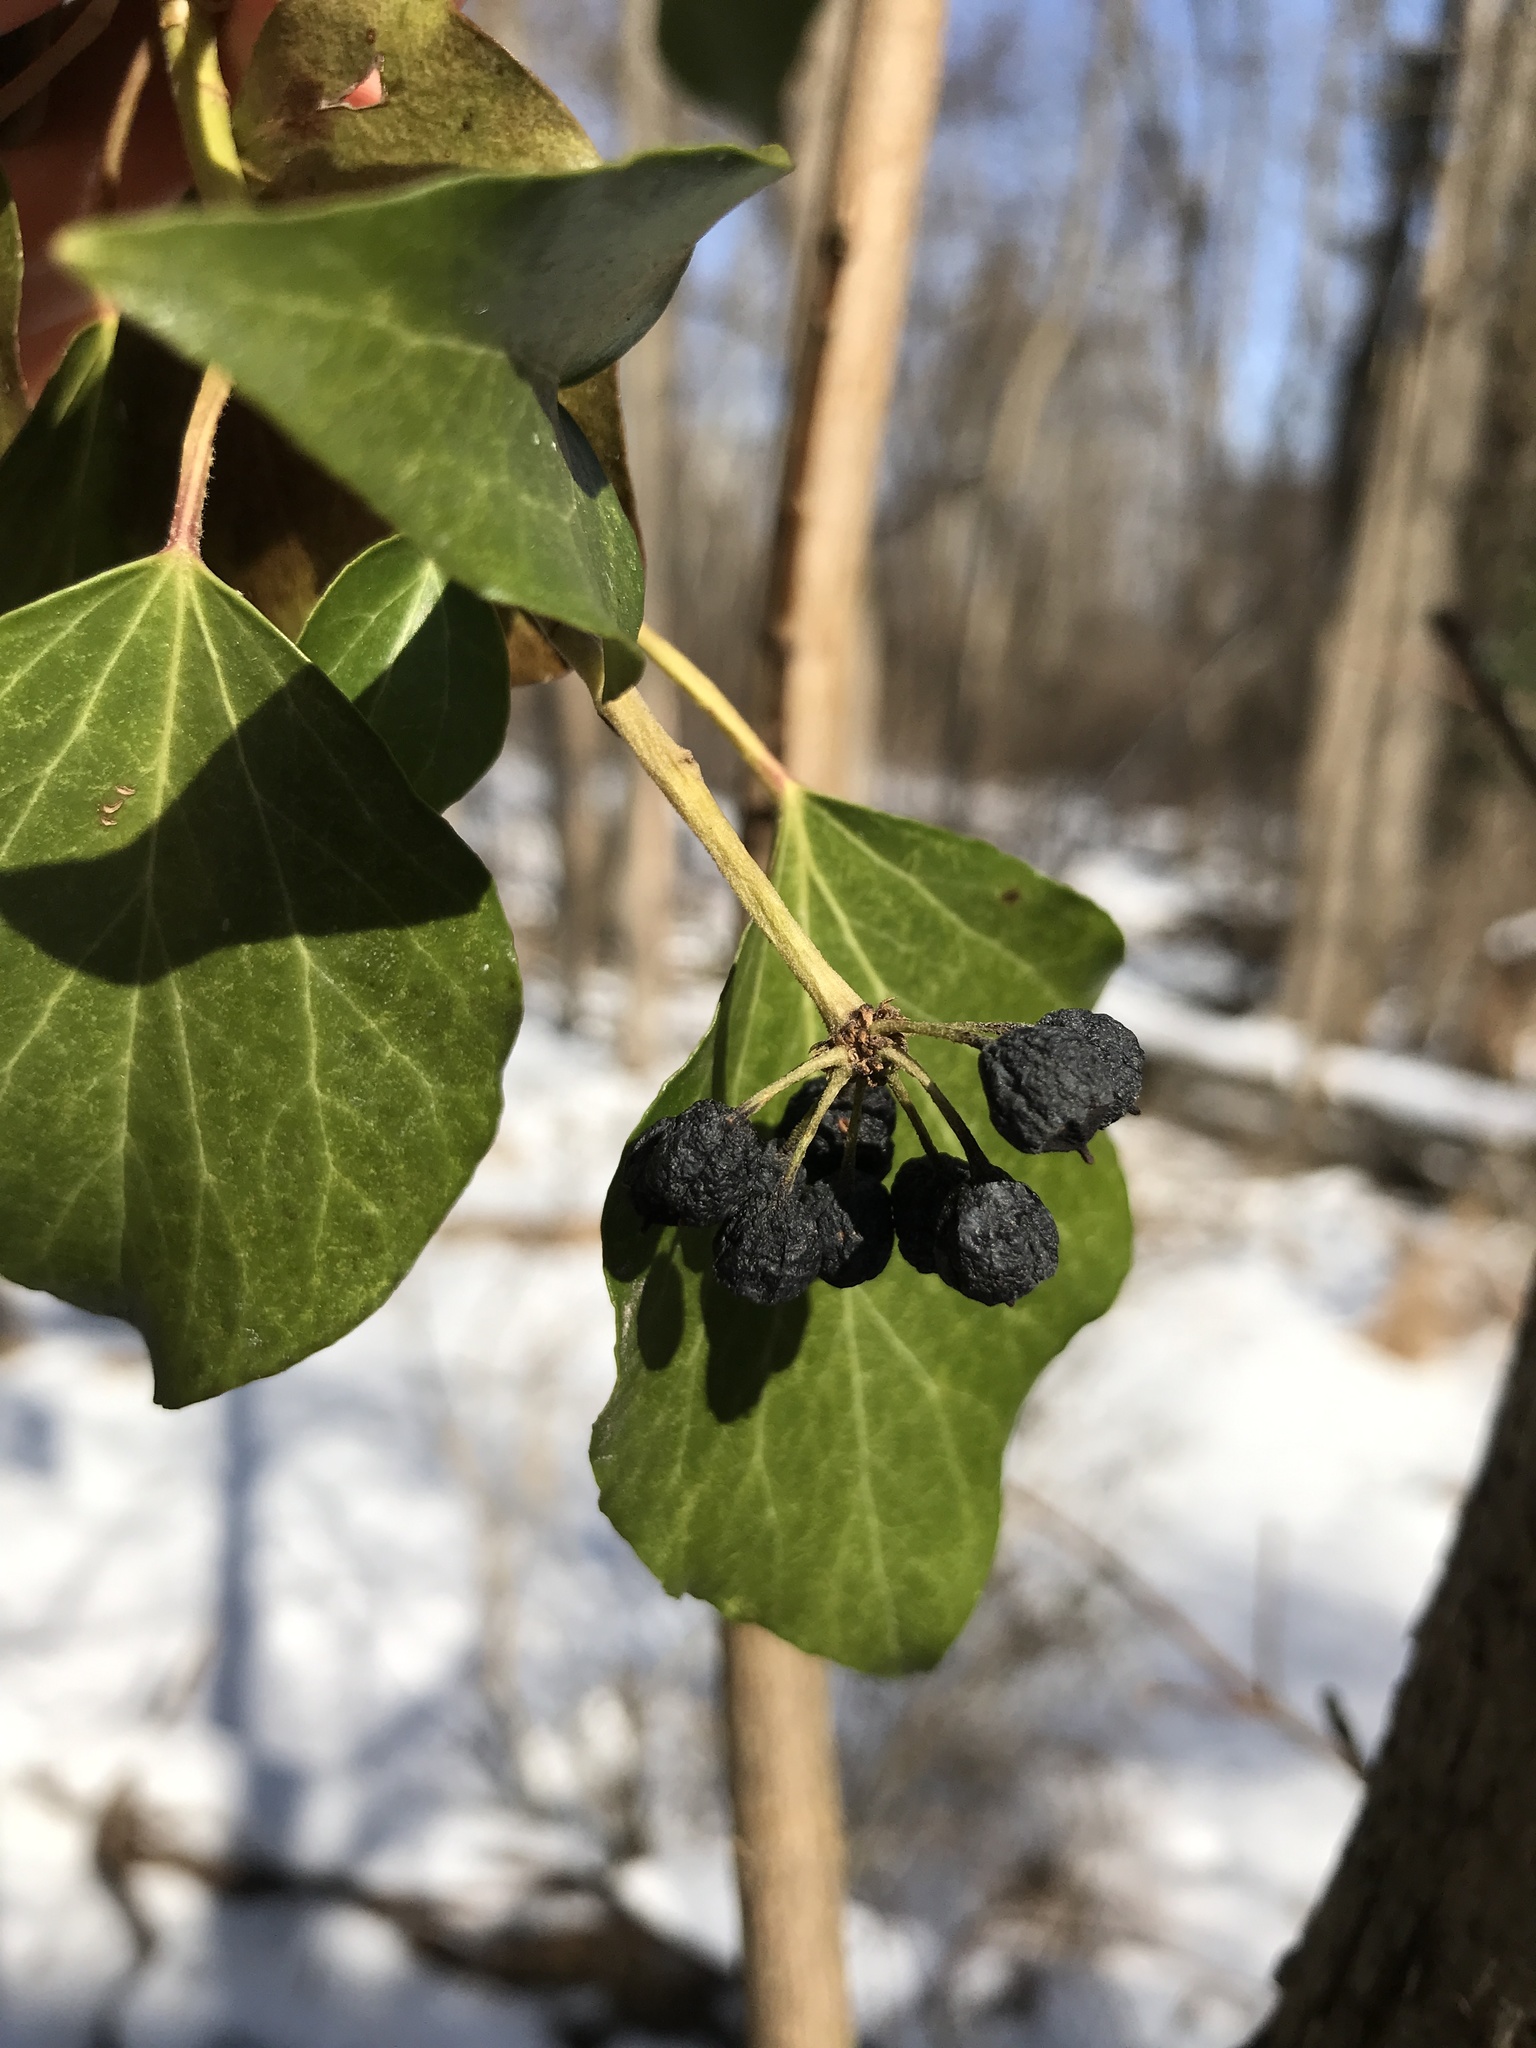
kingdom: Plantae
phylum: Tracheophyta
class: Magnoliopsida
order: Apiales
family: Araliaceae
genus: Hedera
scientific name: Hedera helix
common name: Ivy
